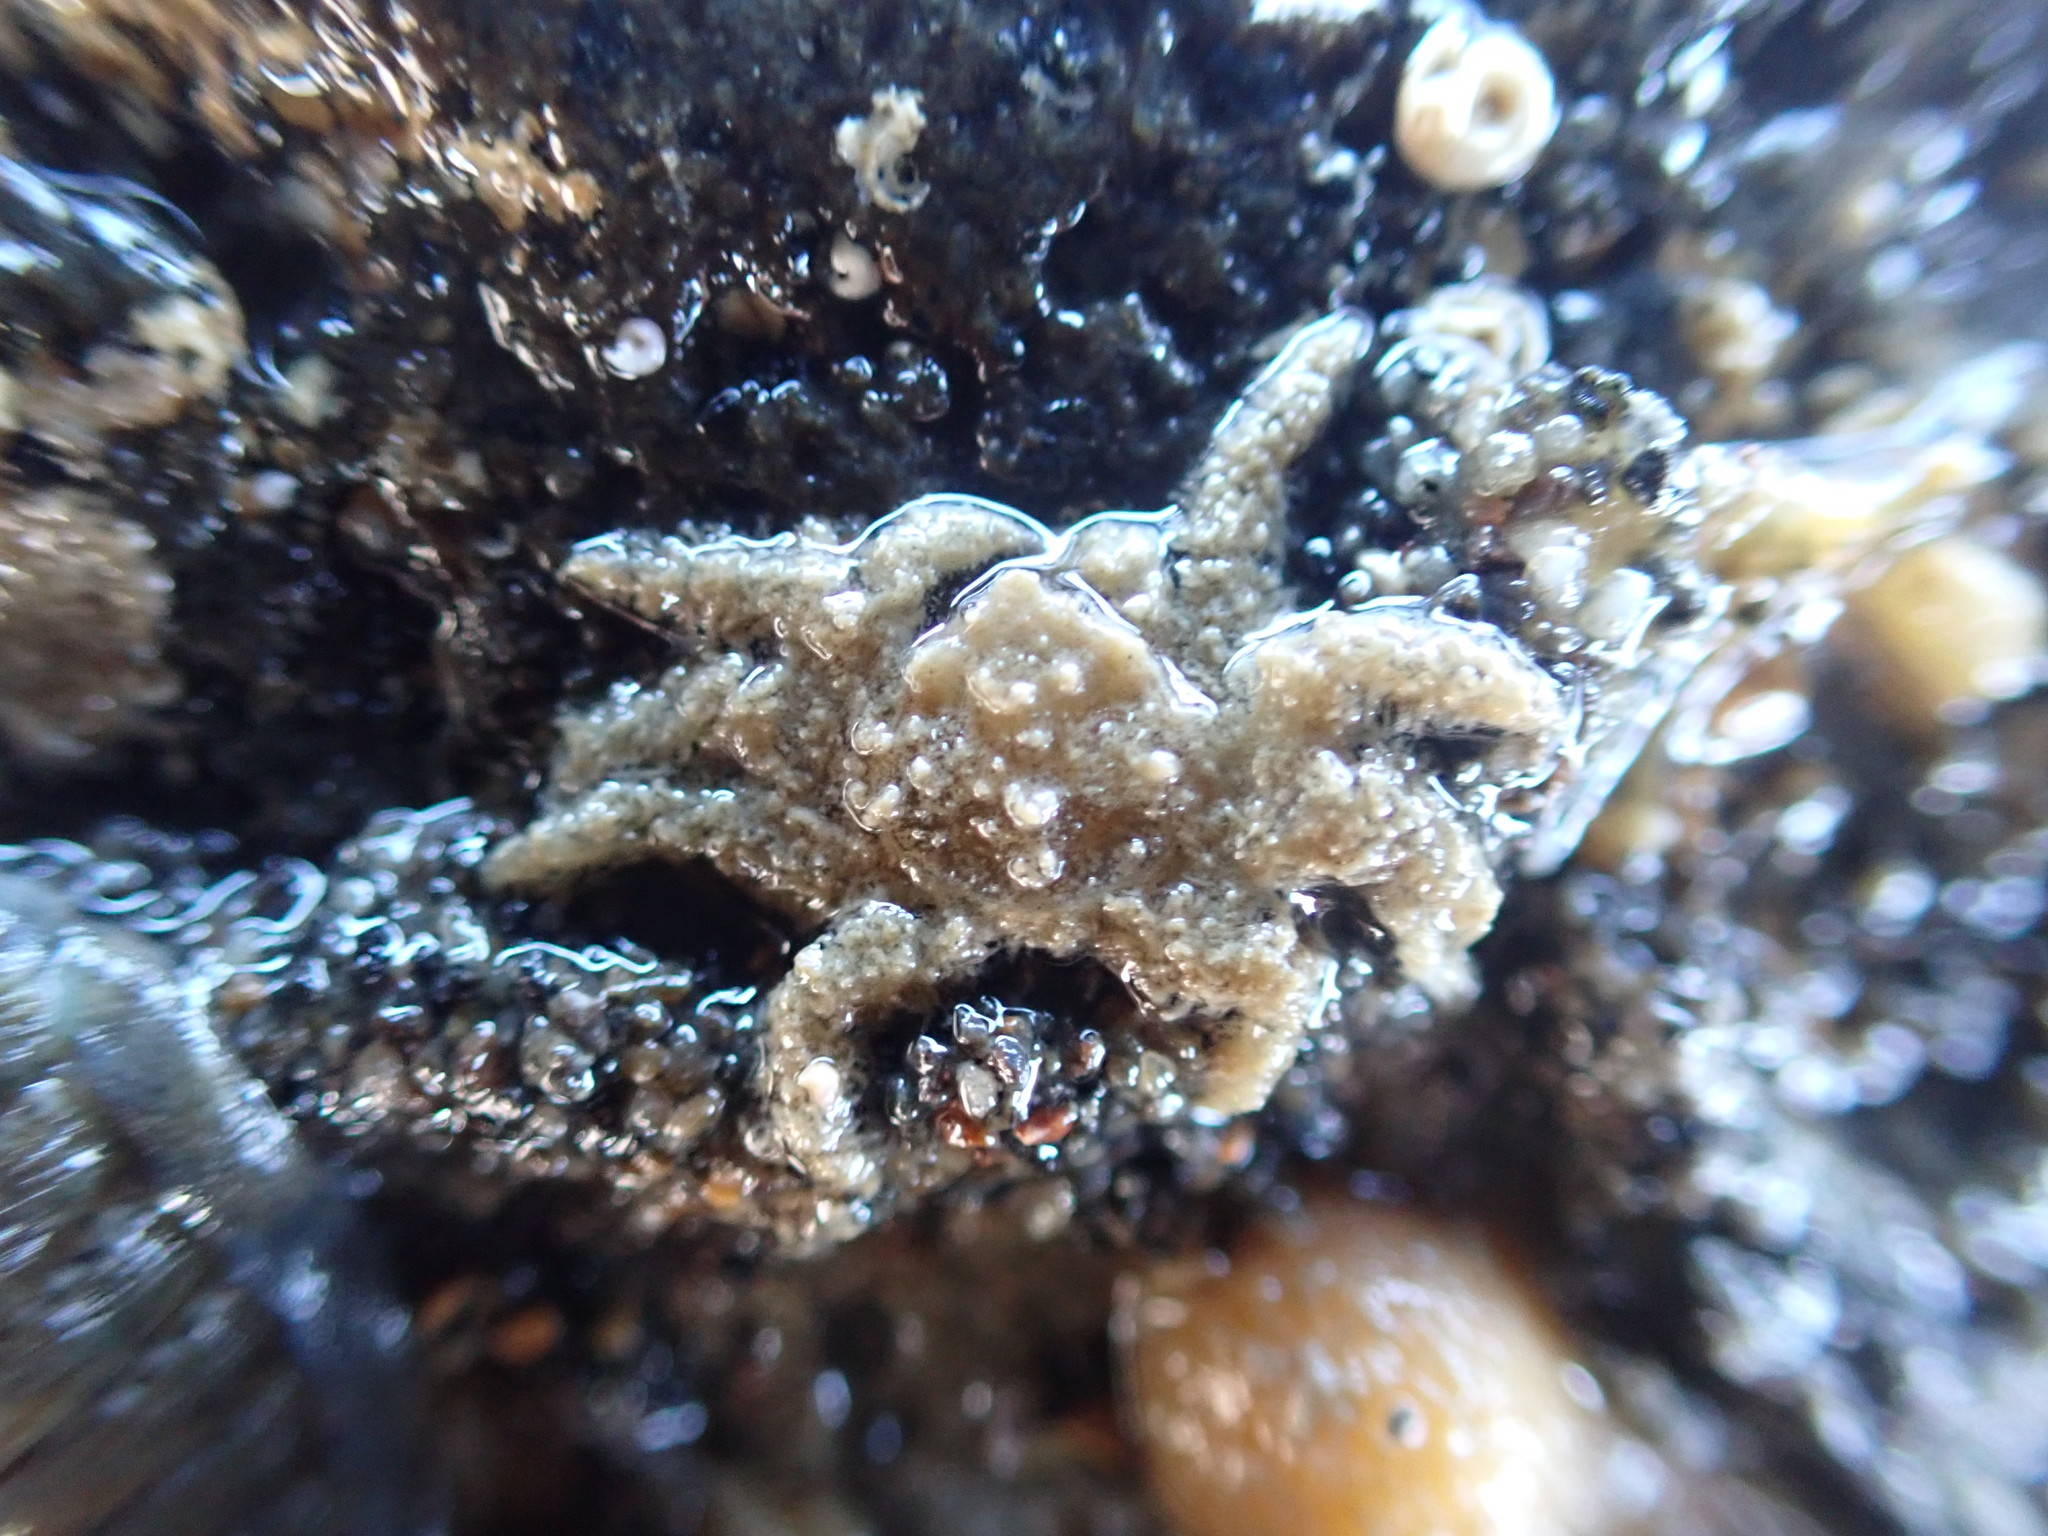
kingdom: Animalia
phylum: Arthropoda
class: Malacostraca
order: Decapoda
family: Hymenosomatidae
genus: Neohymenicus
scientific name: Neohymenicus pubescens
